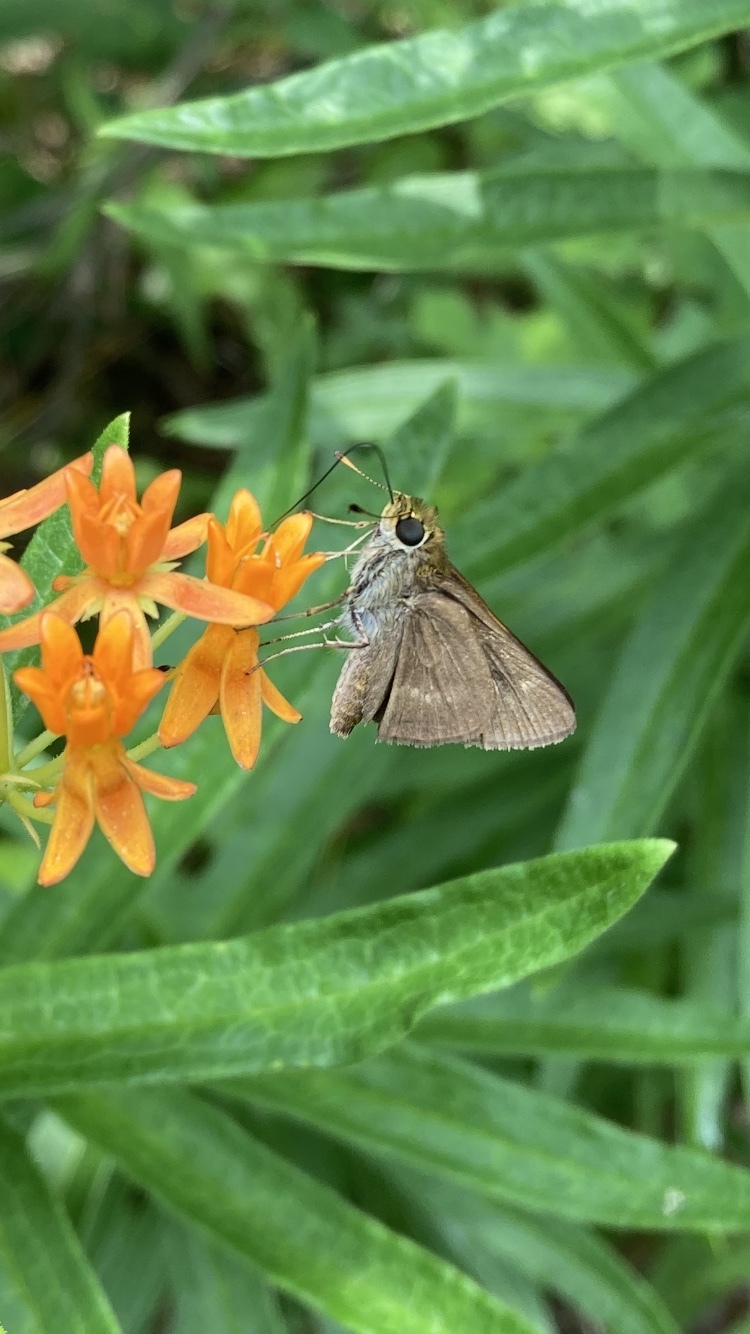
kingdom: Animalia
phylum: Arthropoda
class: Insecta
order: Lepidoptera
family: Hesperiidae
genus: Euphyes
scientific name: Euphyes vestris
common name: Dun skipper
